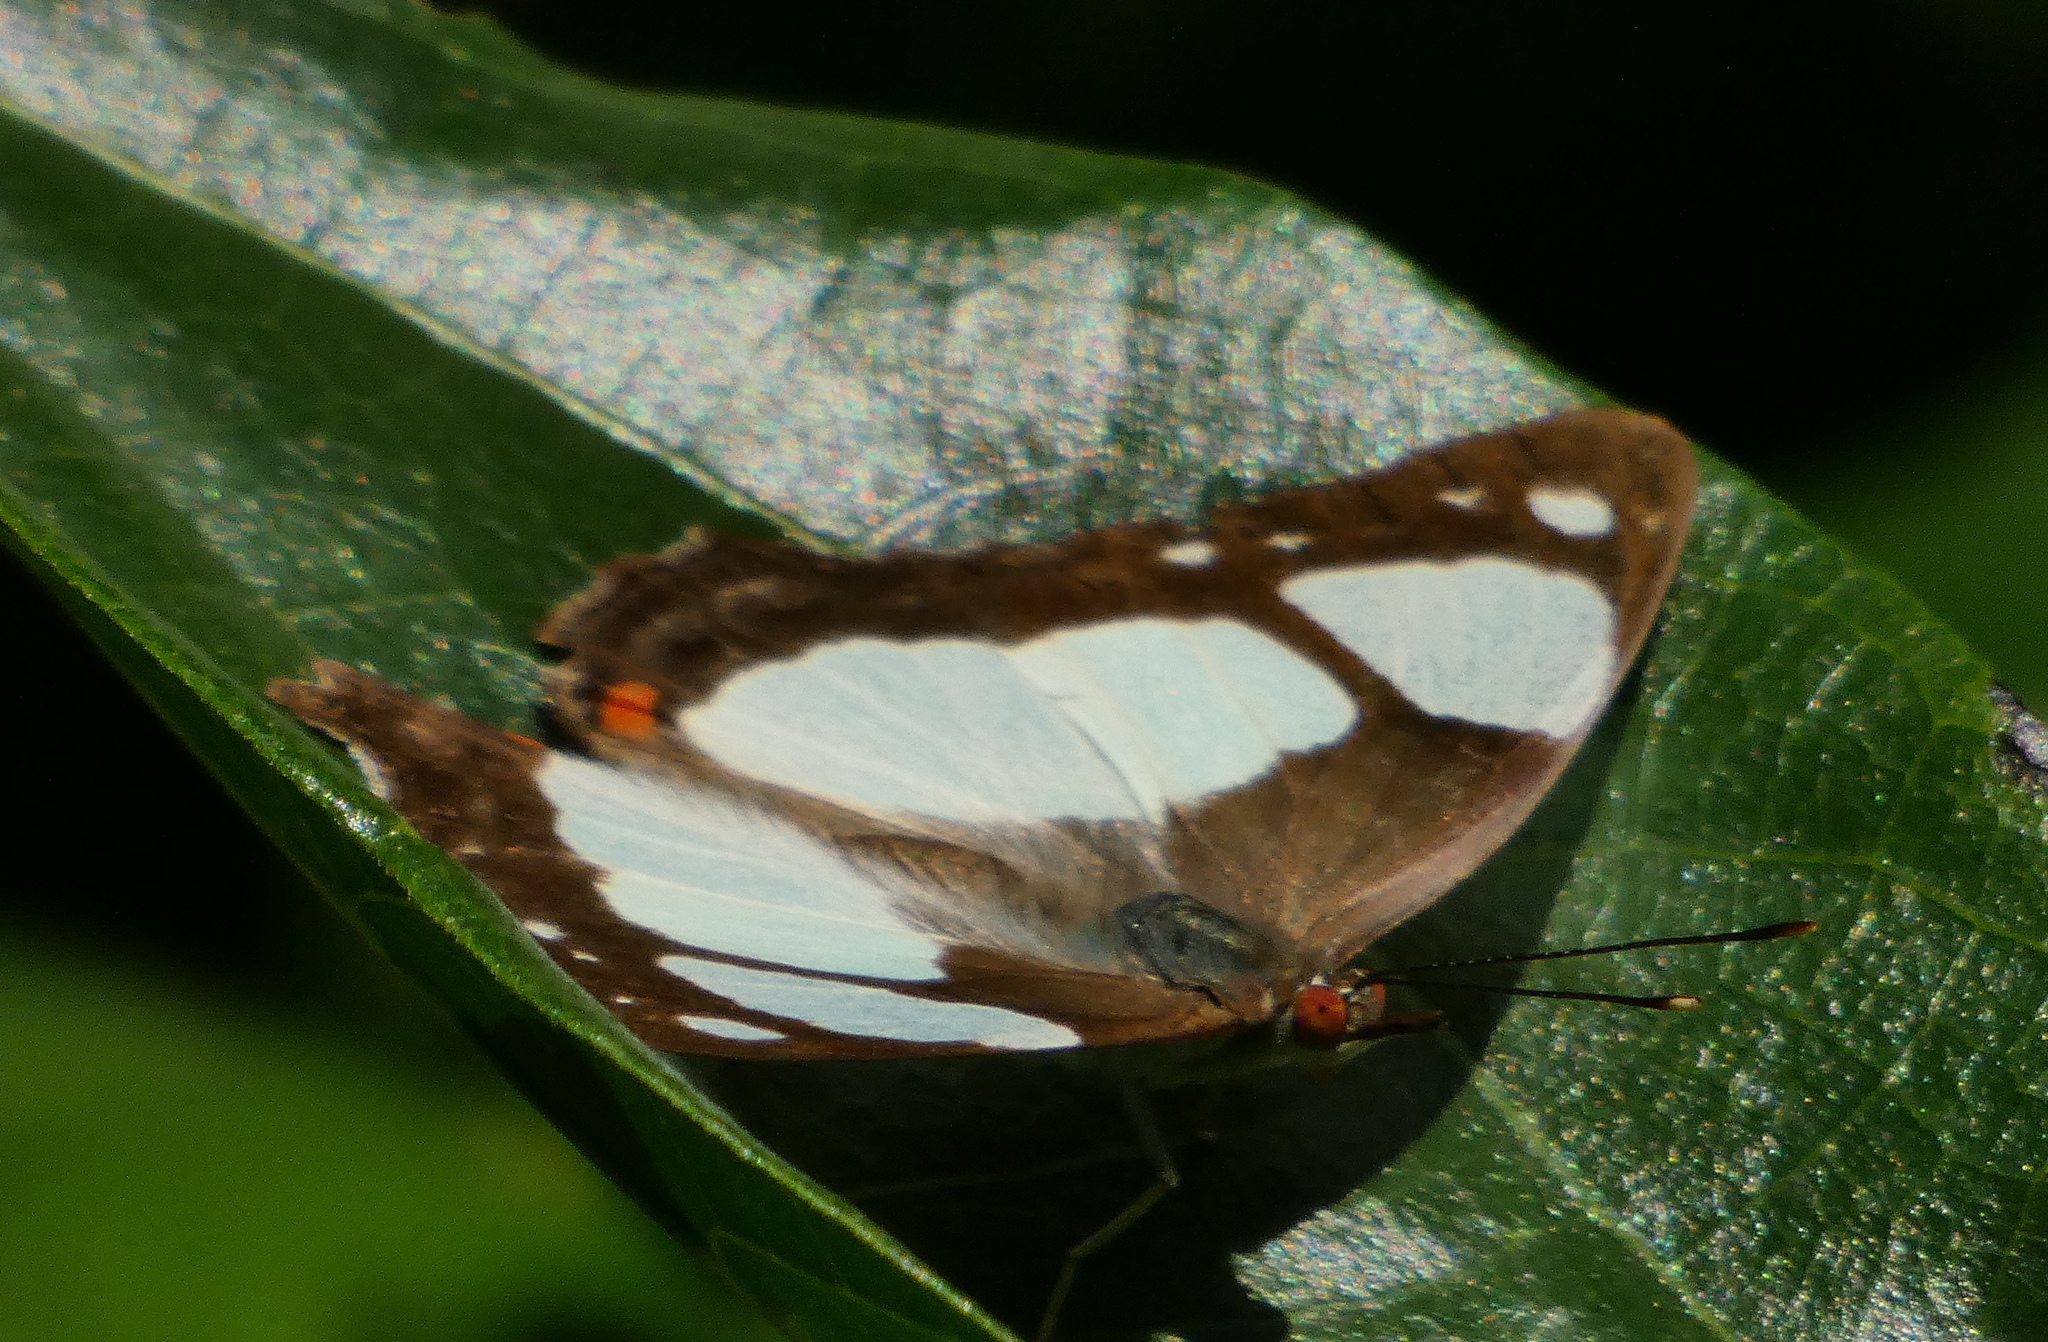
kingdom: Animalia
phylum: Arthropoda
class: Insecta
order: Lepidoptera
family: Nymphalidae
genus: Pyrrhogyra
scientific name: Pyrrhogyra neaerea
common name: Leading red-ring
